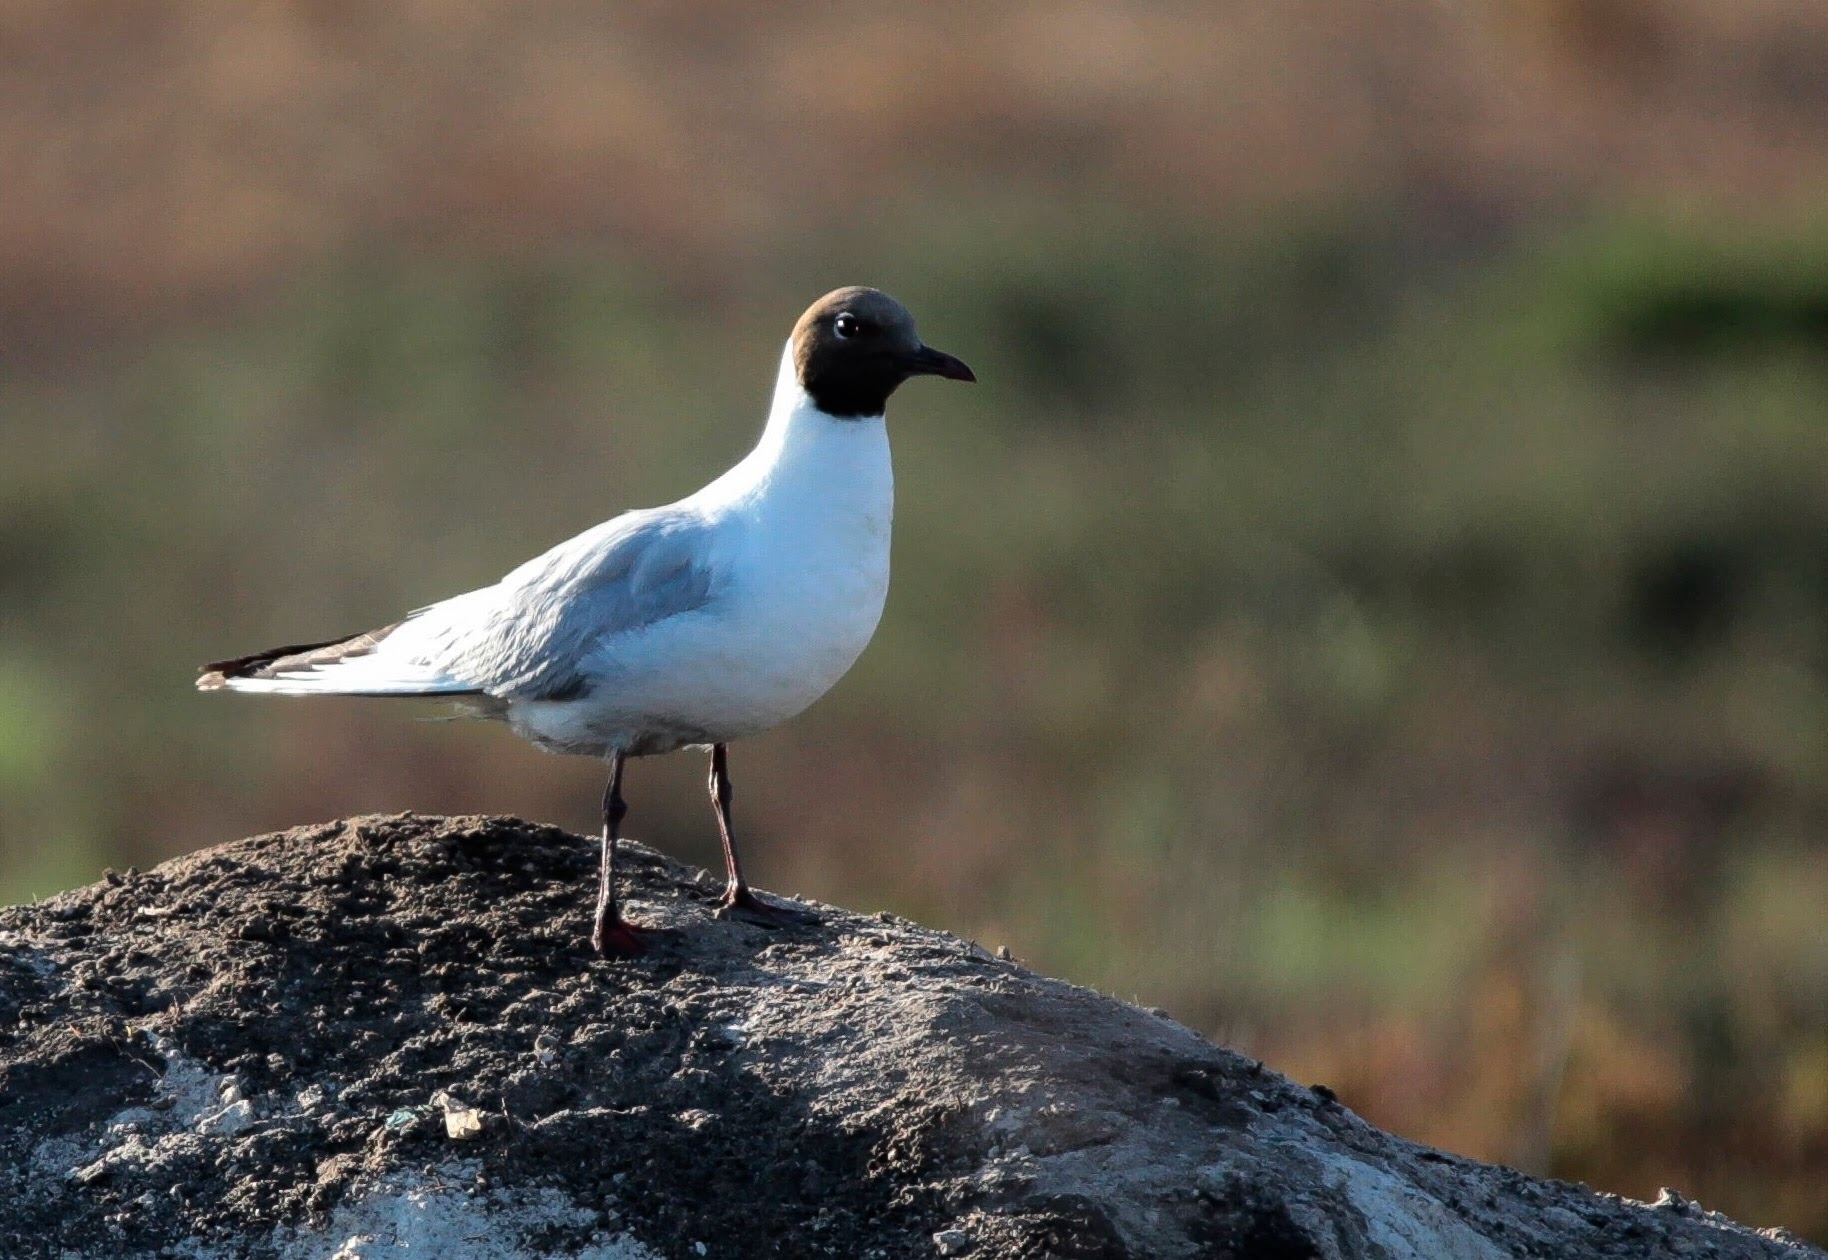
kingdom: Animalia
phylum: Chordata
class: Aves
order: Charadriiformes
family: Laridae
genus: Chroicocephalus
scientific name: Chroicocephalus ridibundus
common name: Black-headed gull
